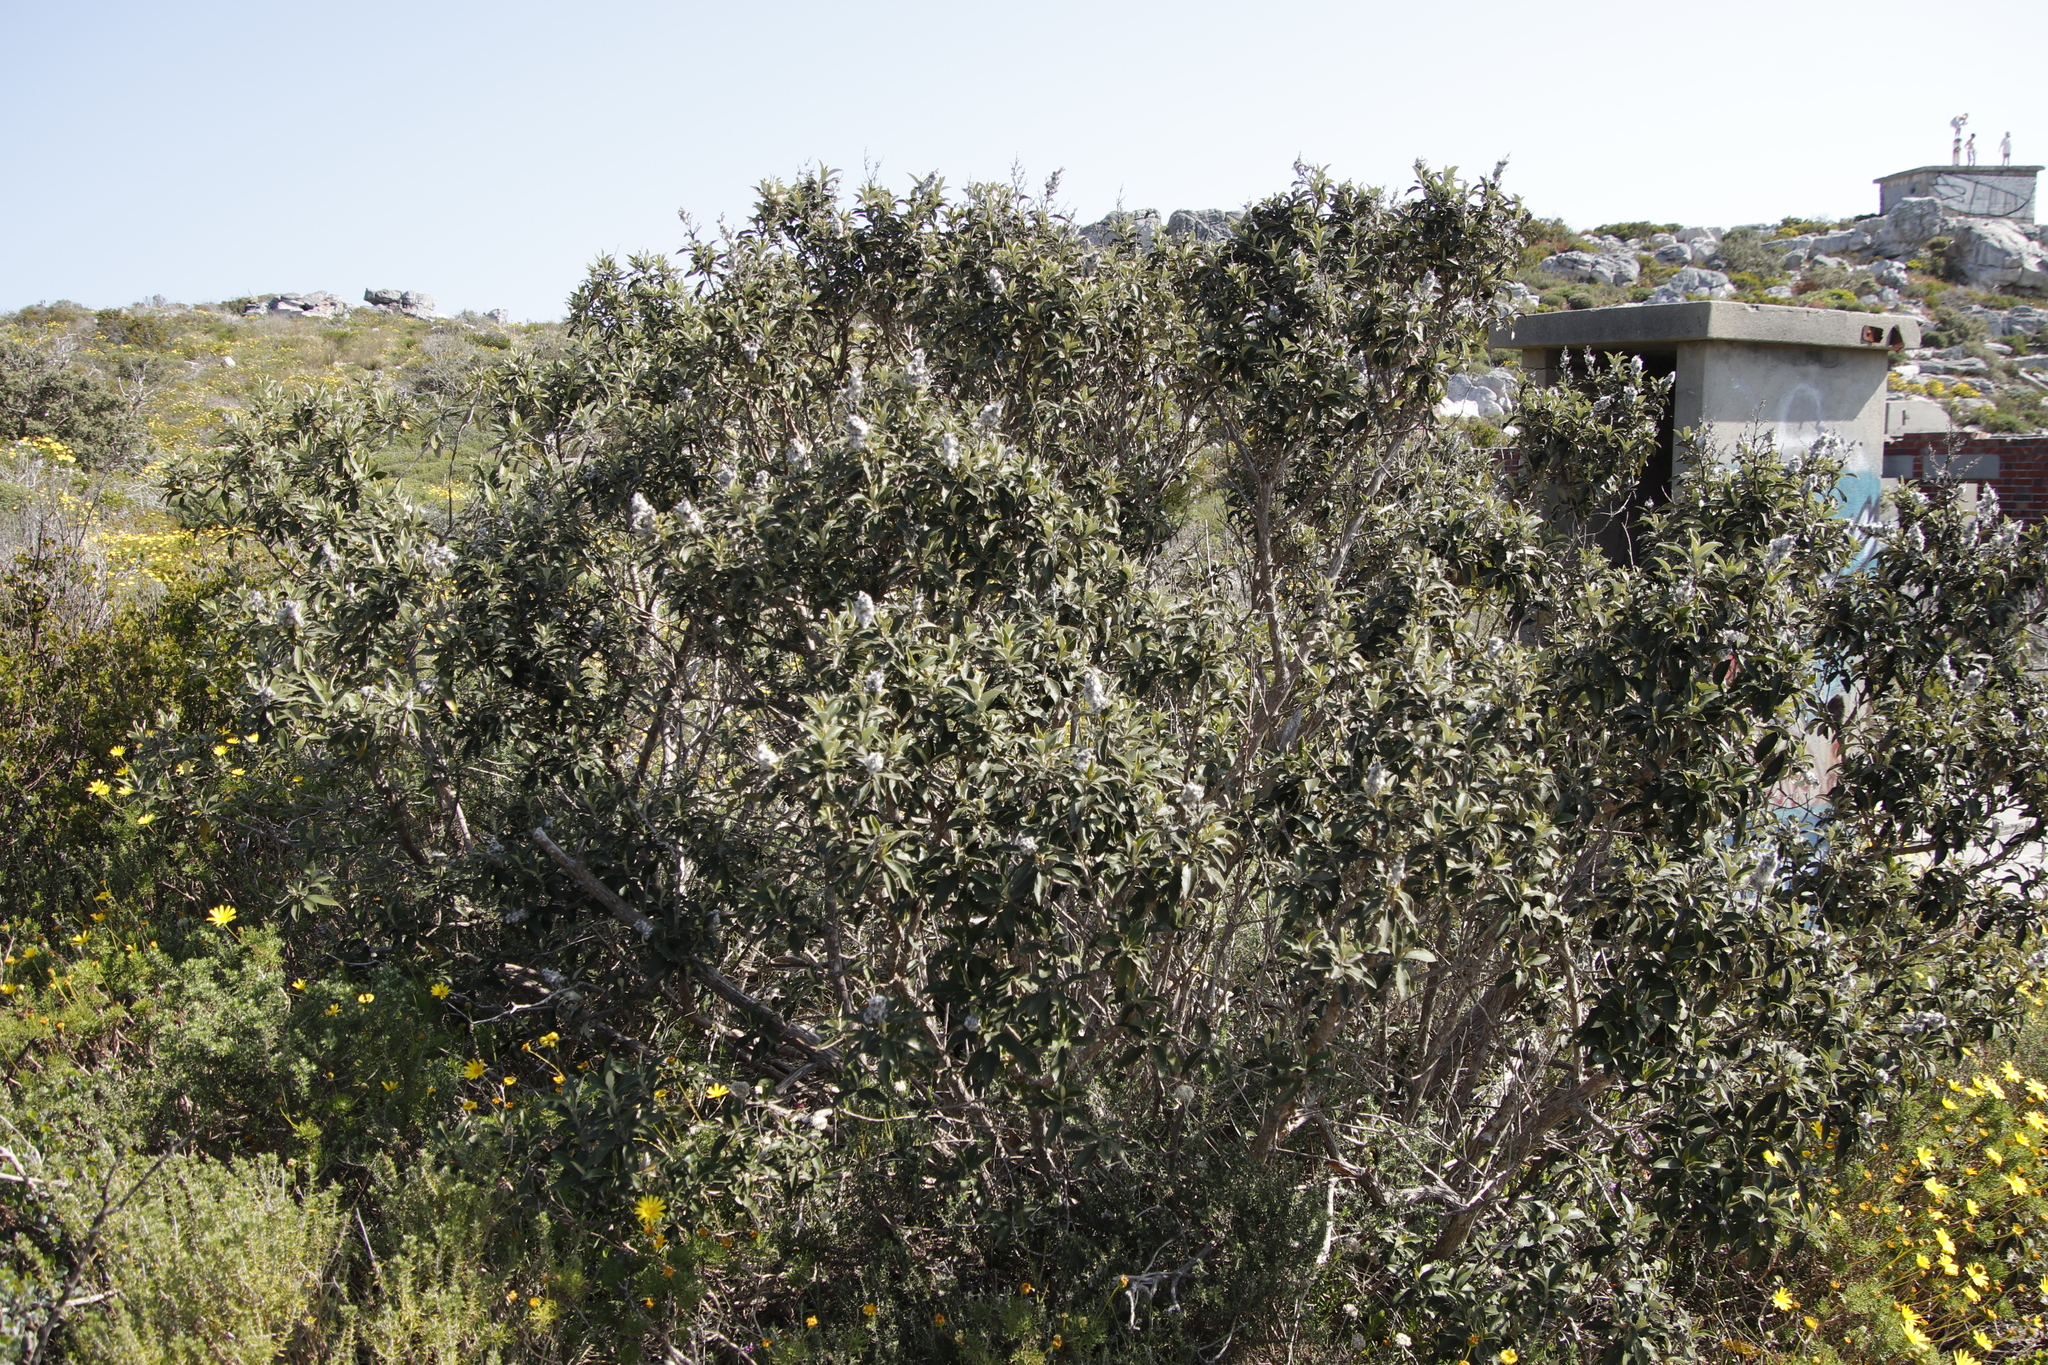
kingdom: Plantae
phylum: Tracheophyta
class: Magnoliopsida
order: Asterales
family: Asteraceae
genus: Tarchonanthus
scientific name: Tarchonanthus littoralis
